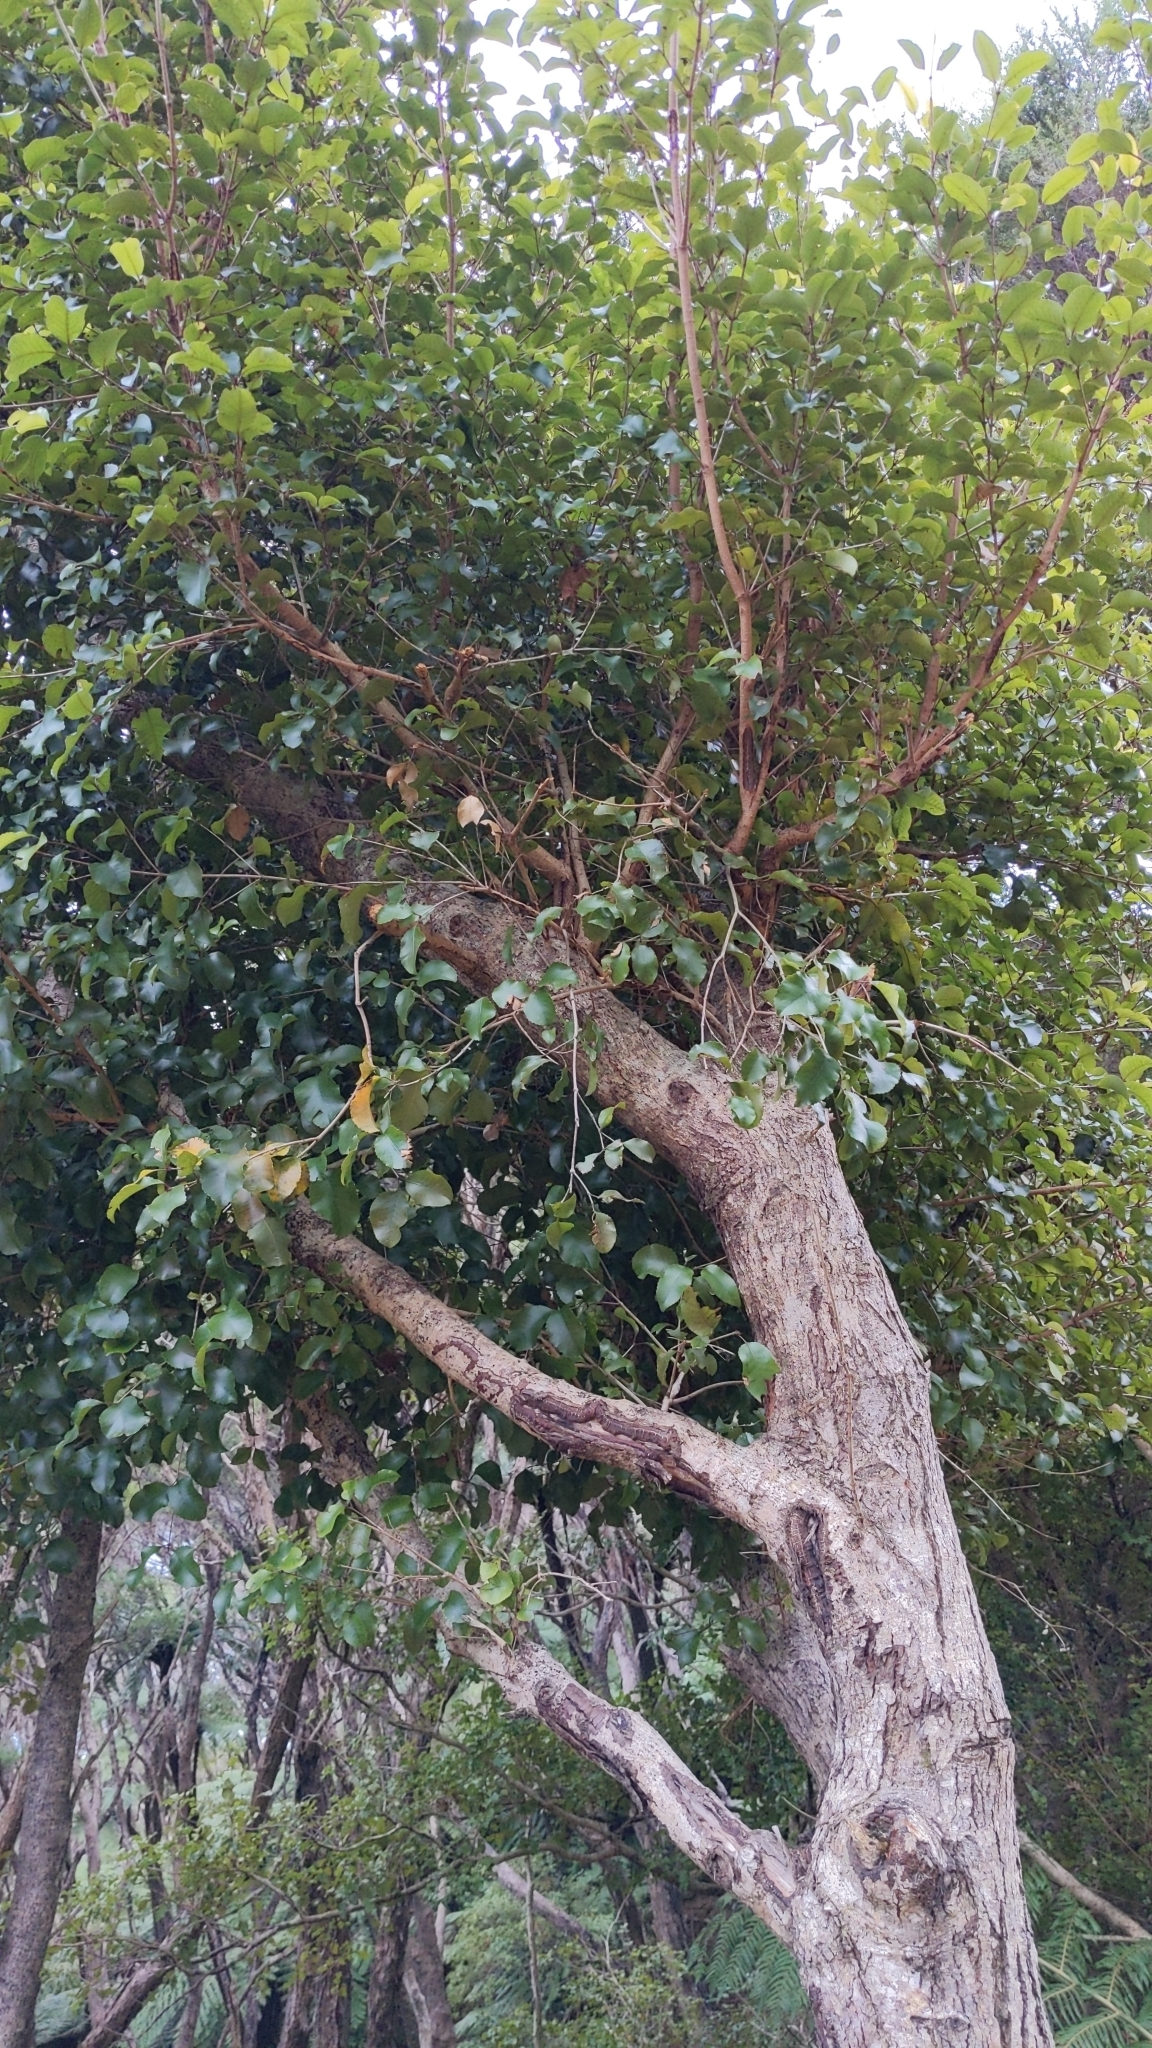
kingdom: Plantae
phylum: Tracheophyta
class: Magnoliopsida
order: Oxalidales
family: Cunoniaceae
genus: Pterophylla
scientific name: Pterophylla racemosa
